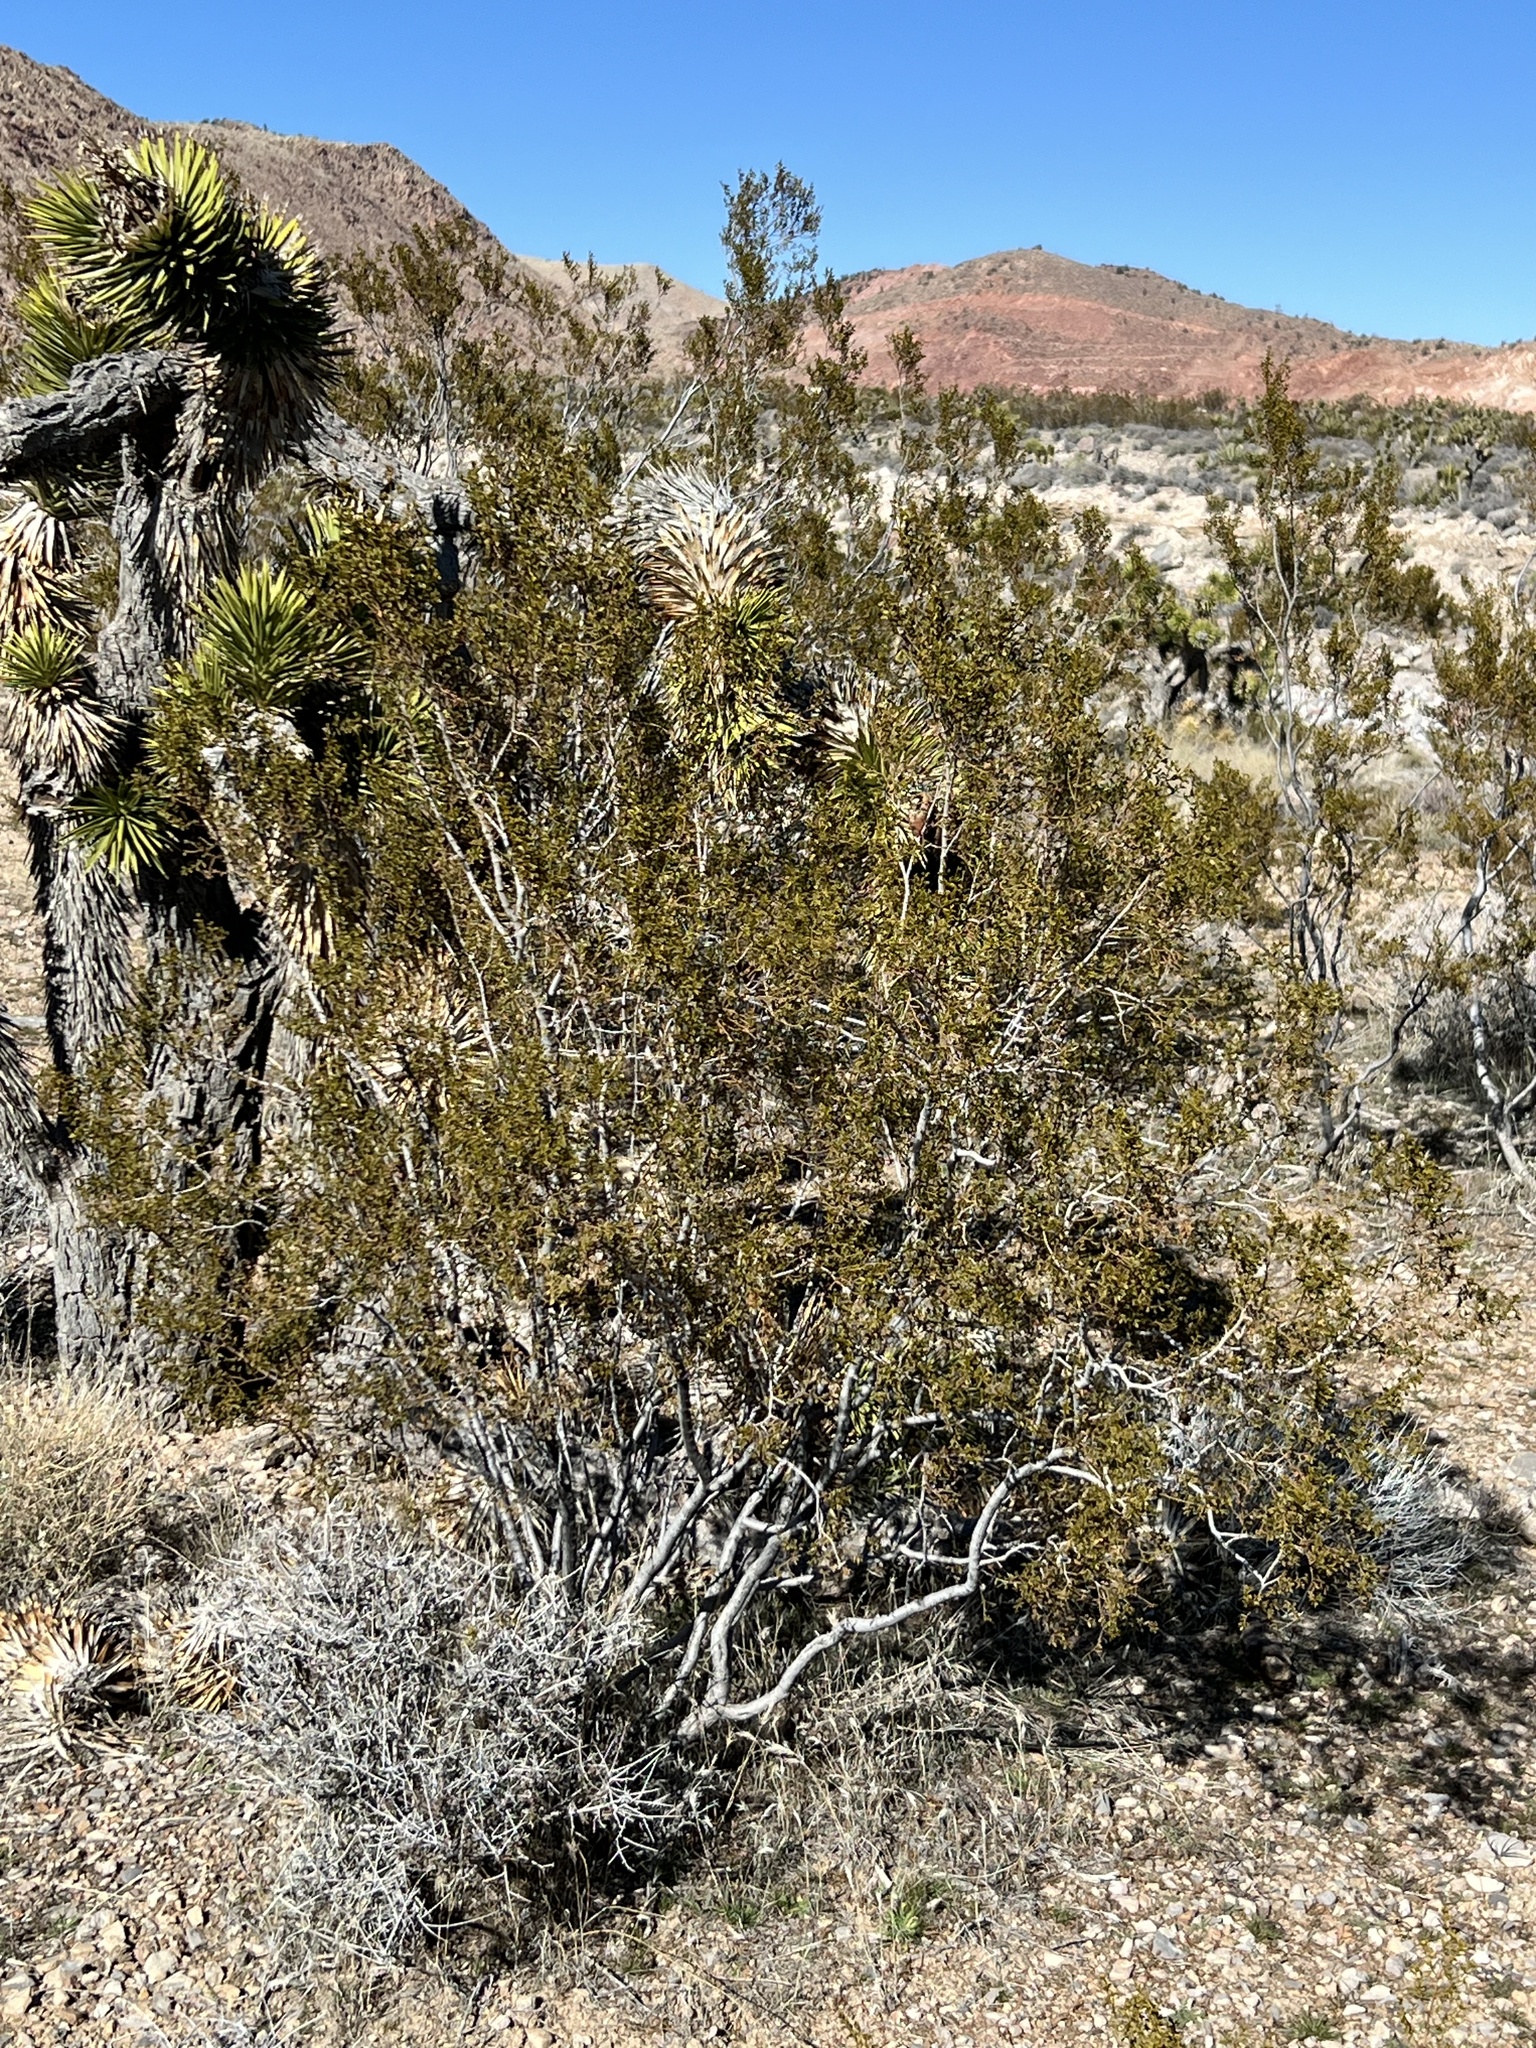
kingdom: Plantae
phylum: Tracheophyta
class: Magnoliopsida
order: Zygophyllales
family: Zygophyllaceae
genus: Larrea
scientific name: Larrea tridentata
